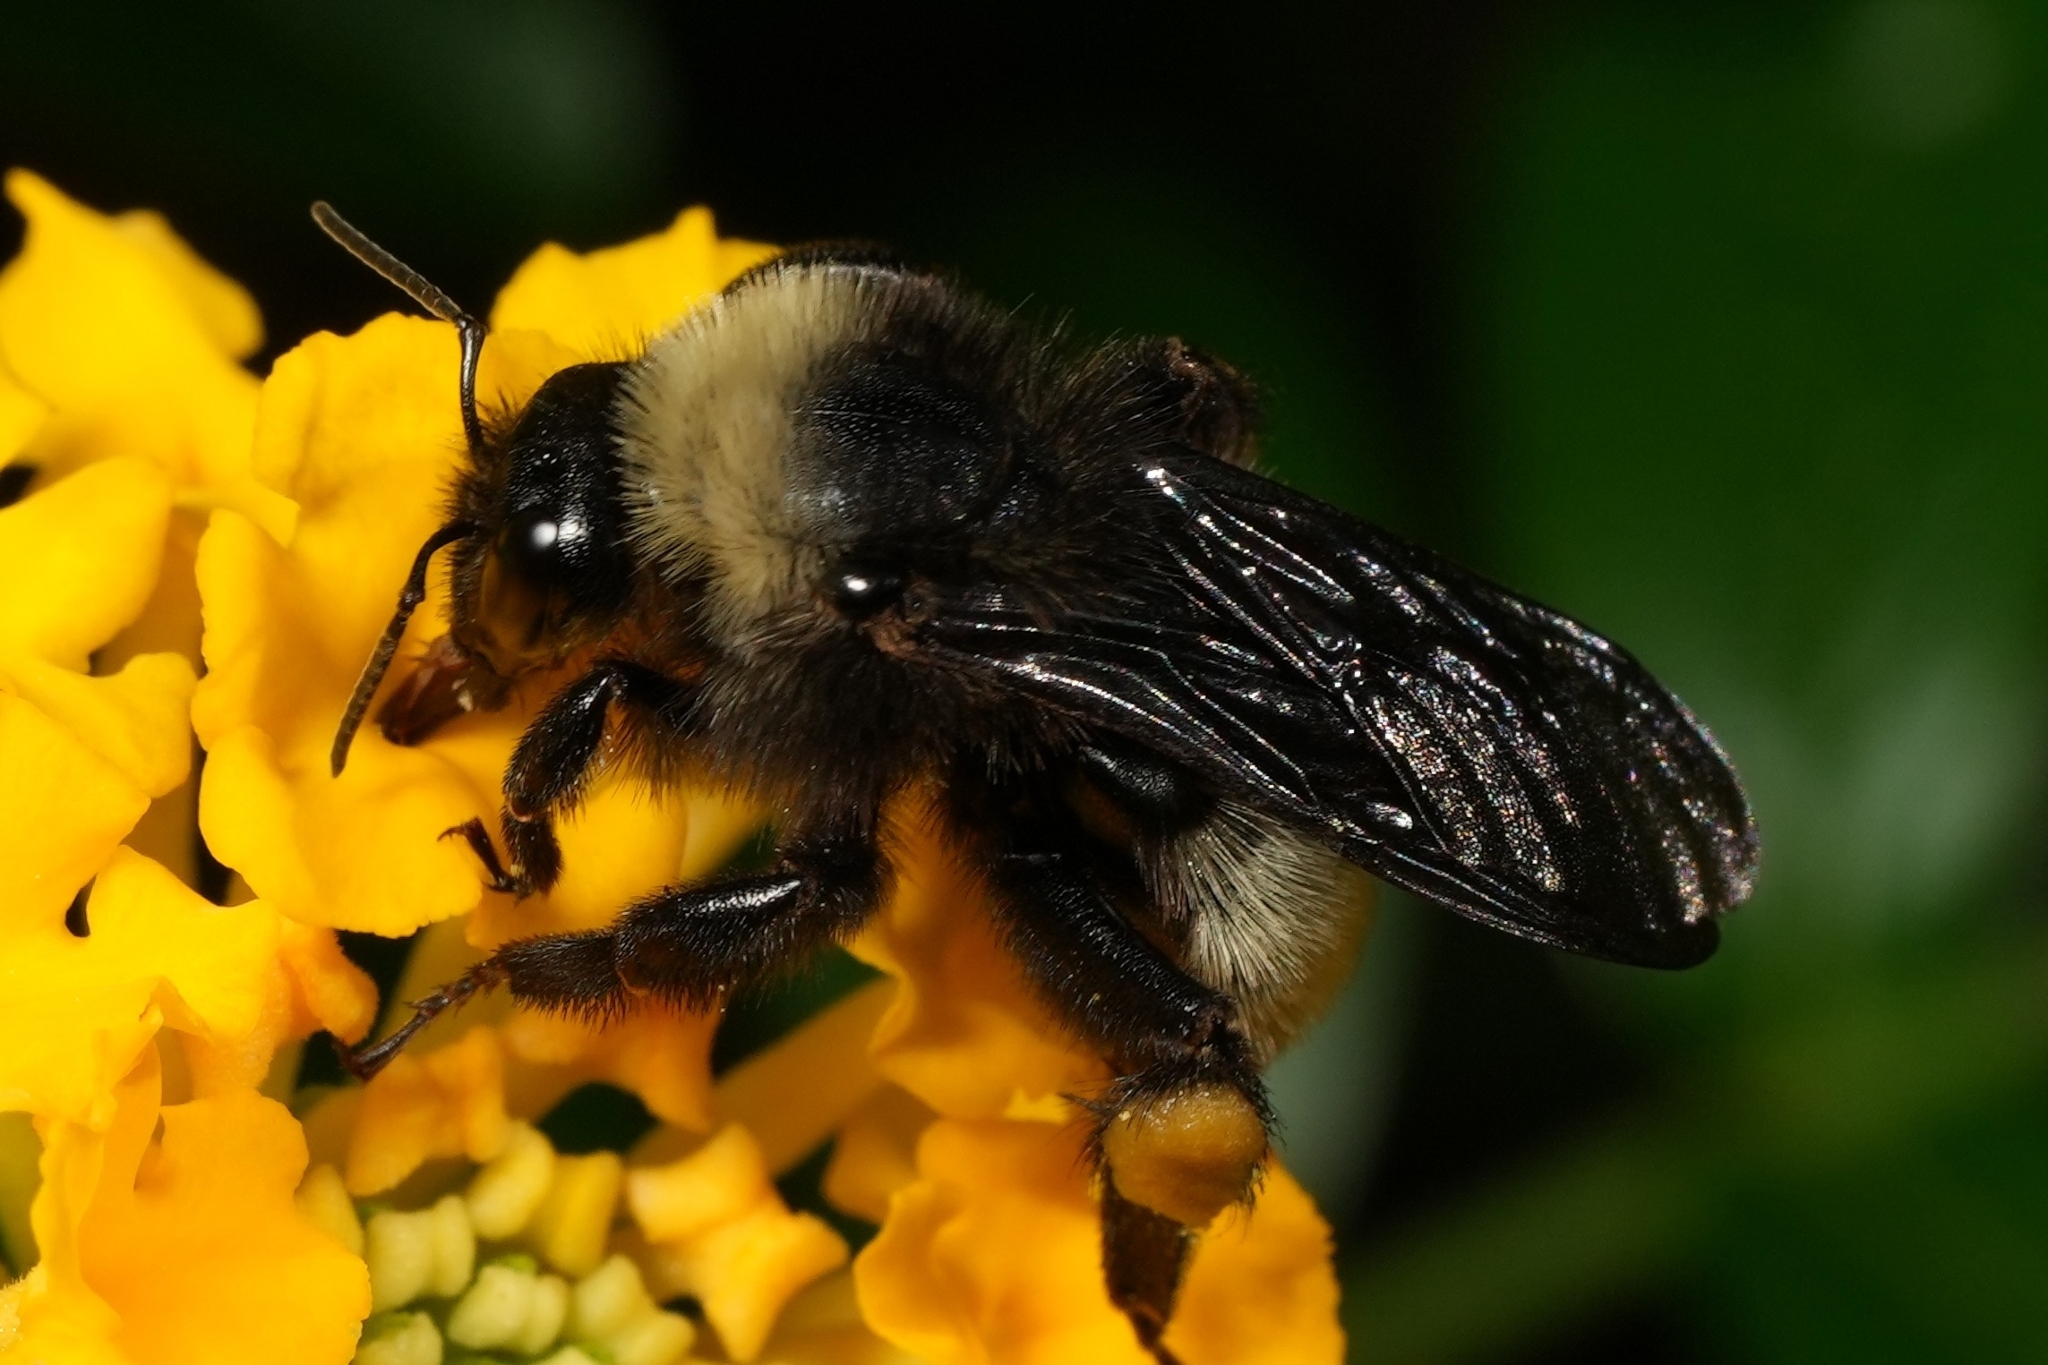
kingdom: Animalia
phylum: Arthropoda
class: Insecta
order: Hymenoptera
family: Apidae
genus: Bombus
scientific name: Bombus pensylvanicus
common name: Bumble bee
